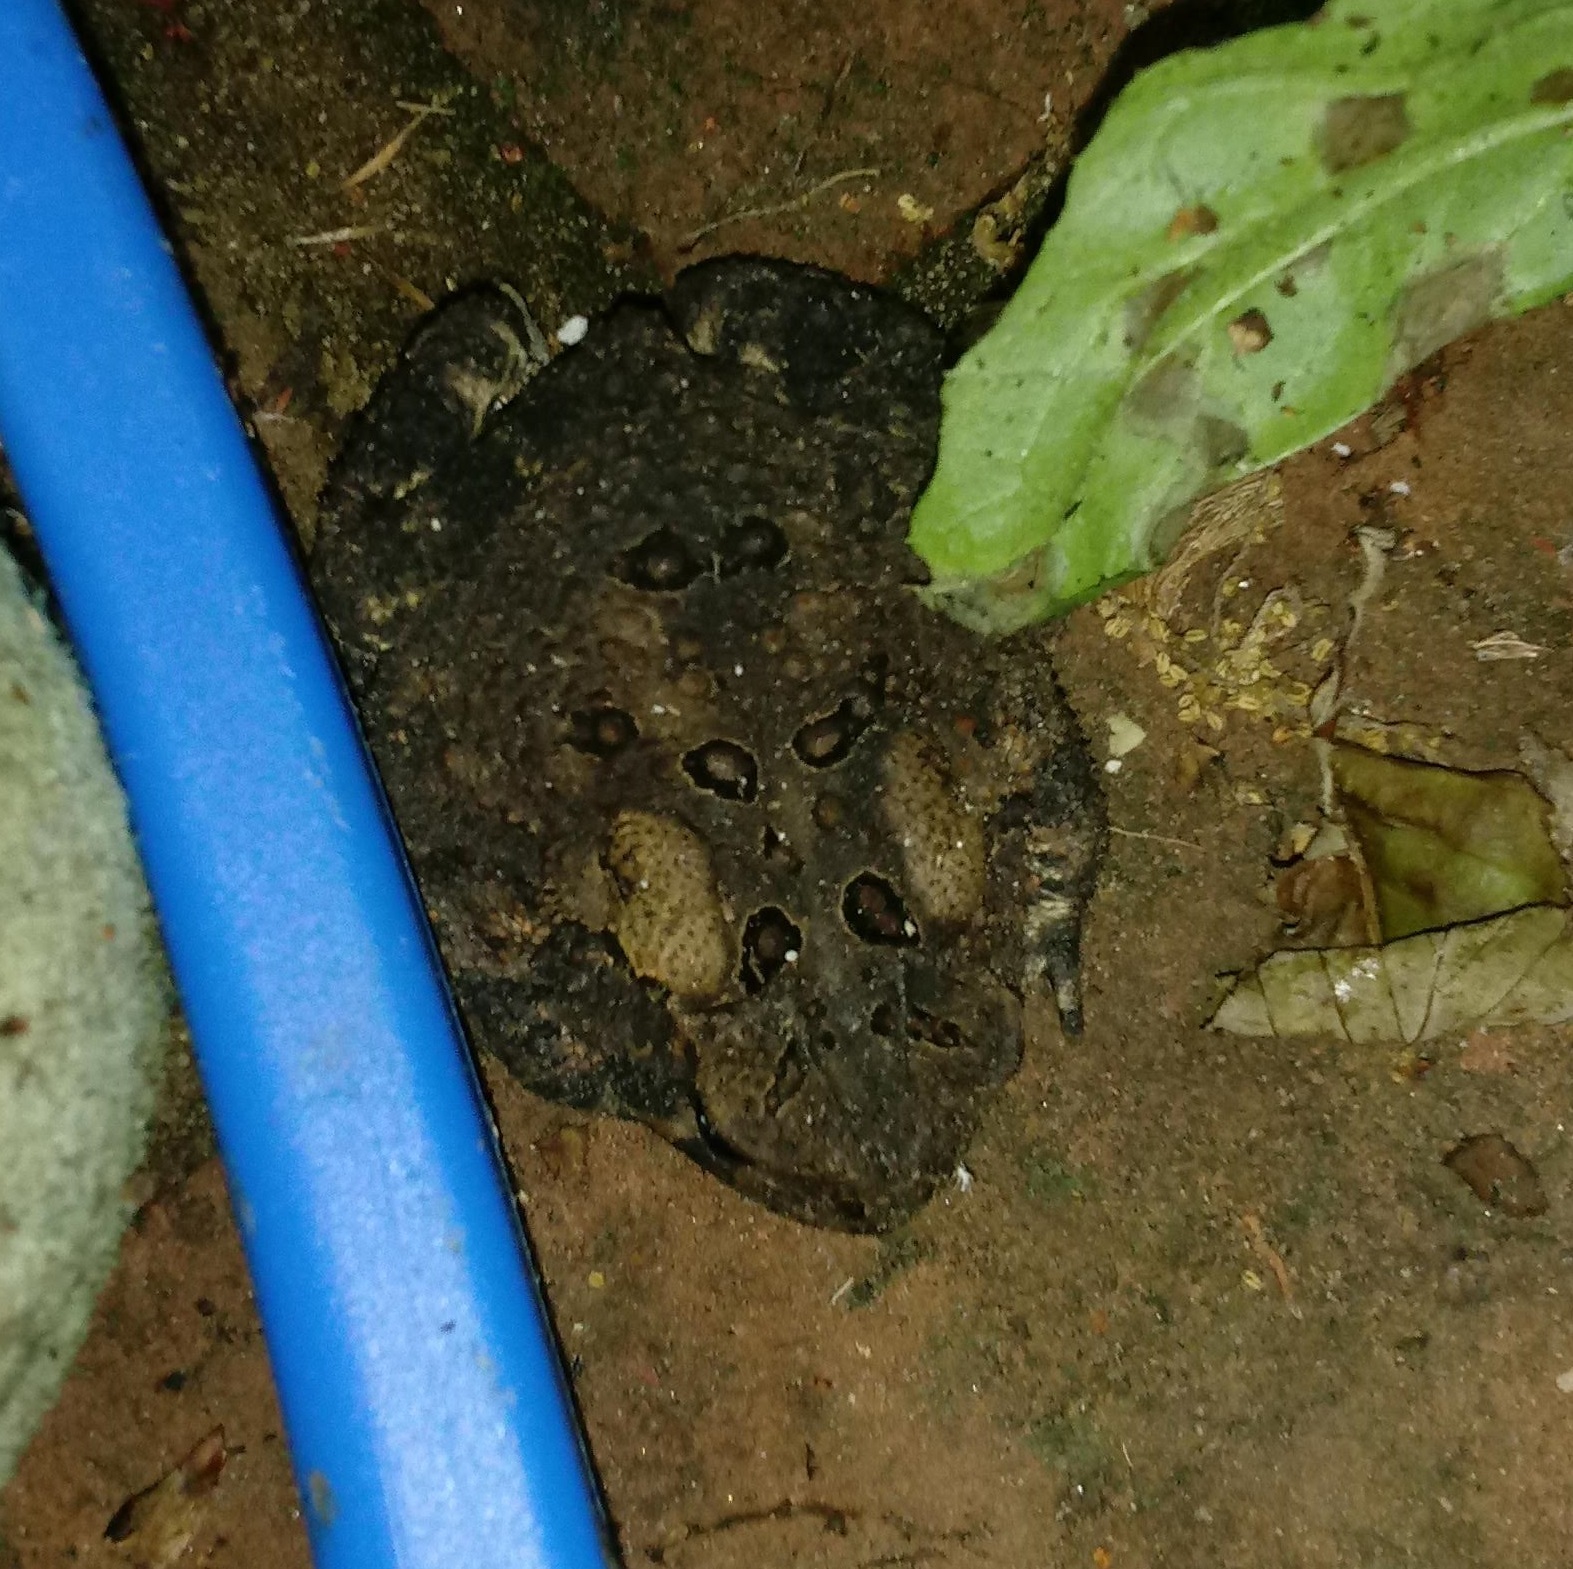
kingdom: Animalia
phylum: Chordata
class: Amphibia
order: Anura
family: Bufonidae
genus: Anaxyrus
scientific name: Anaxyrus americanus
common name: American toad
